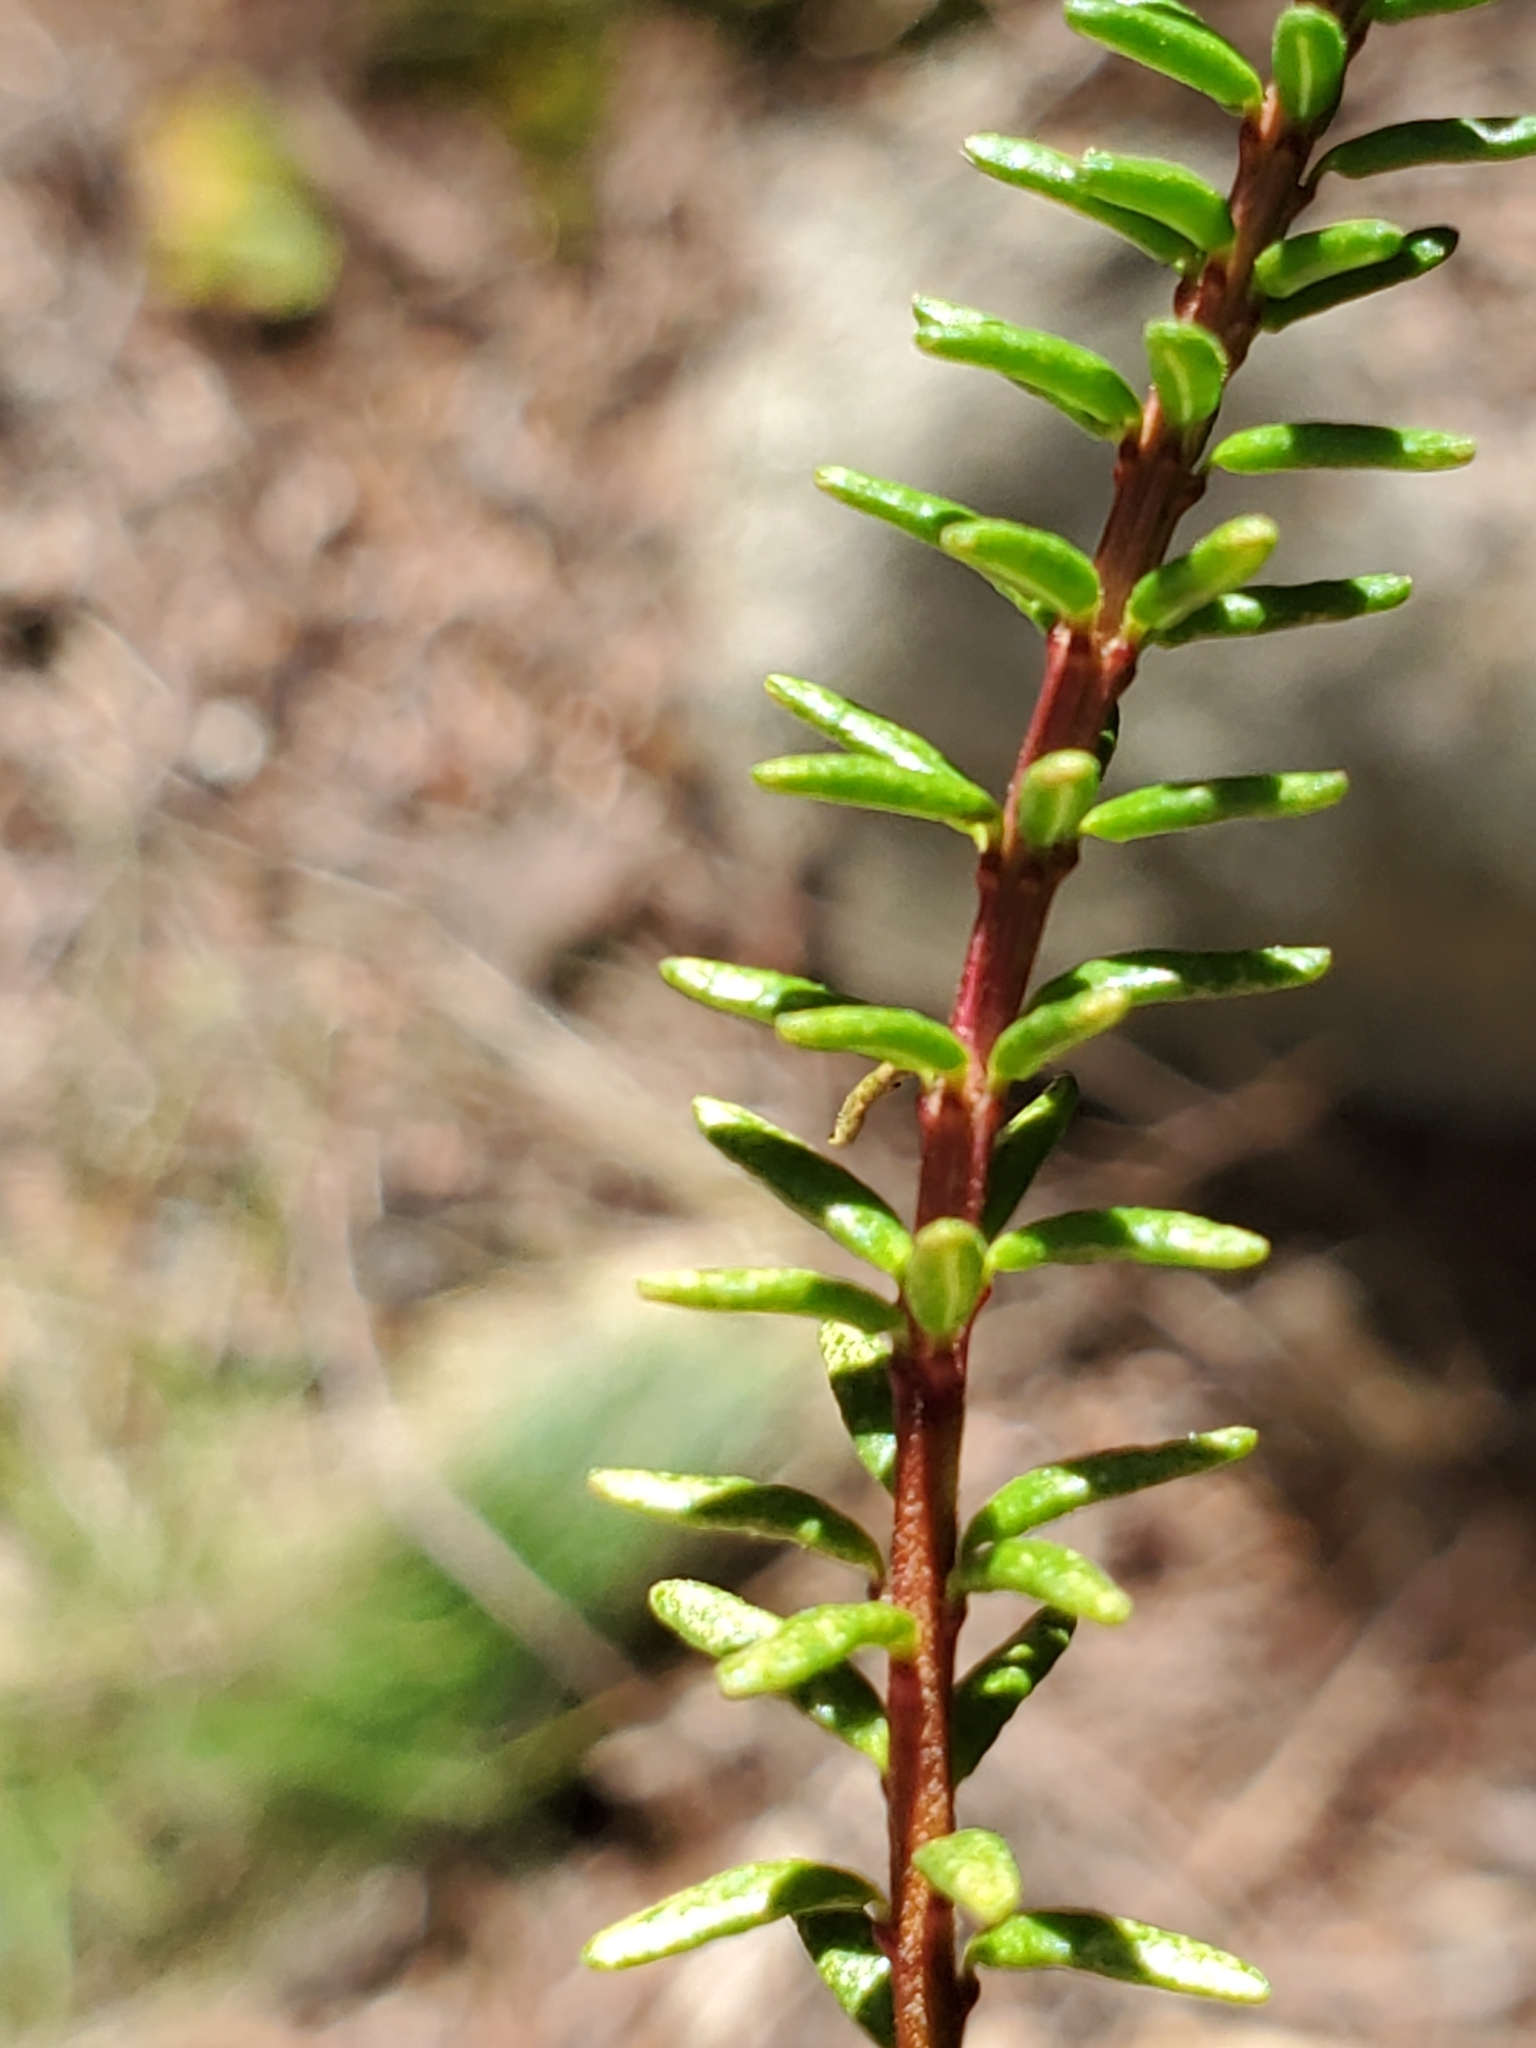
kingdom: Plantae
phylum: Tracheophyta
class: Magnoliopsida
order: Ericales
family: Ericaceae
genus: Empetrum
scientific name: Empetrum nigrum
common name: Black crowberry
